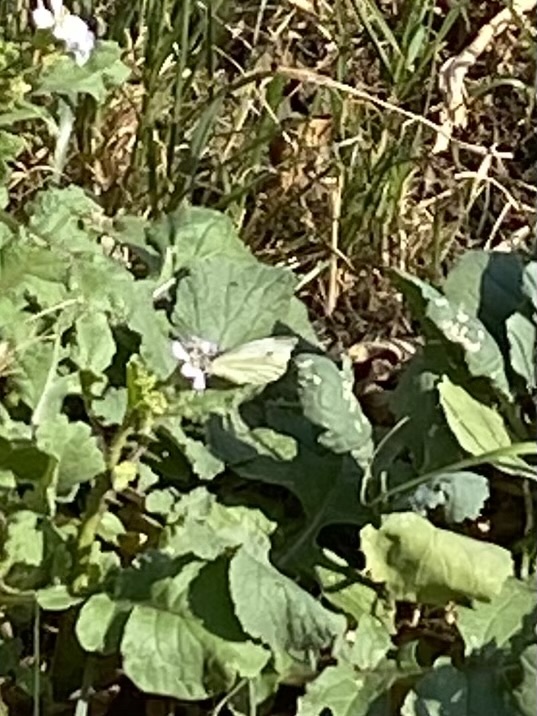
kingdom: Animalia
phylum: Arthropoda
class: Insecta
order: Lepidoptera
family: Pieridae
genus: Pieris
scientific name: Pieris napi
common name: Green-veined white
